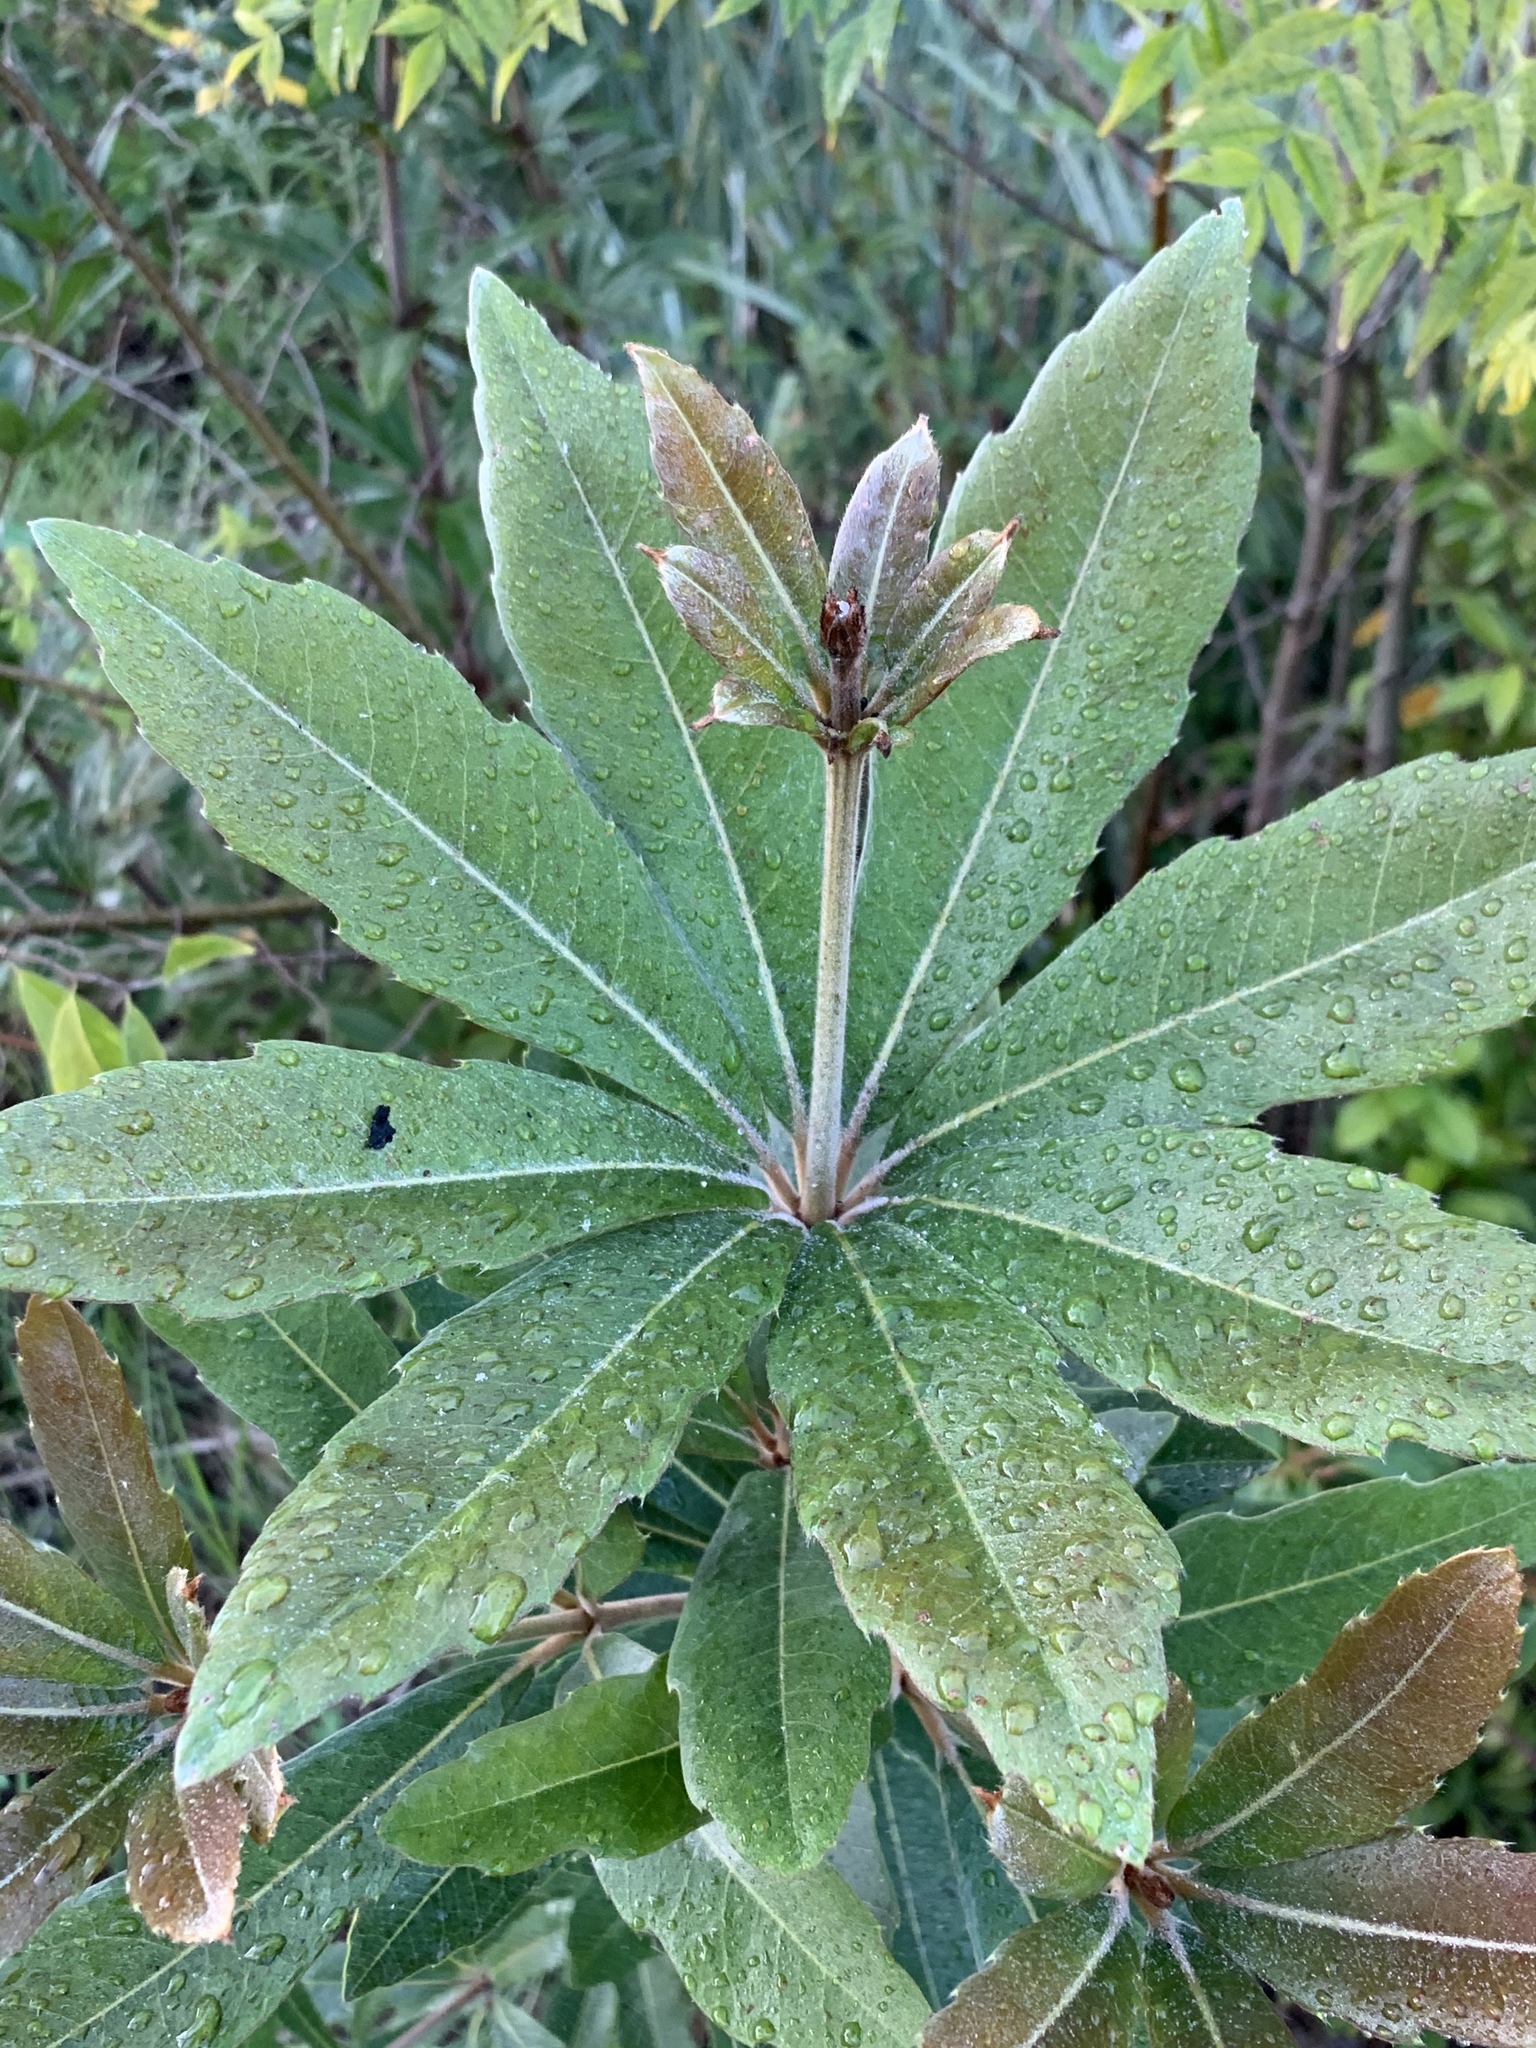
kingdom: Plantae
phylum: Tracheophyta
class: Magnoliopsida
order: Proteales
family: Proteaceae
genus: Brabejum
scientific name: Brabejum stellatifolium
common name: Wild almond
